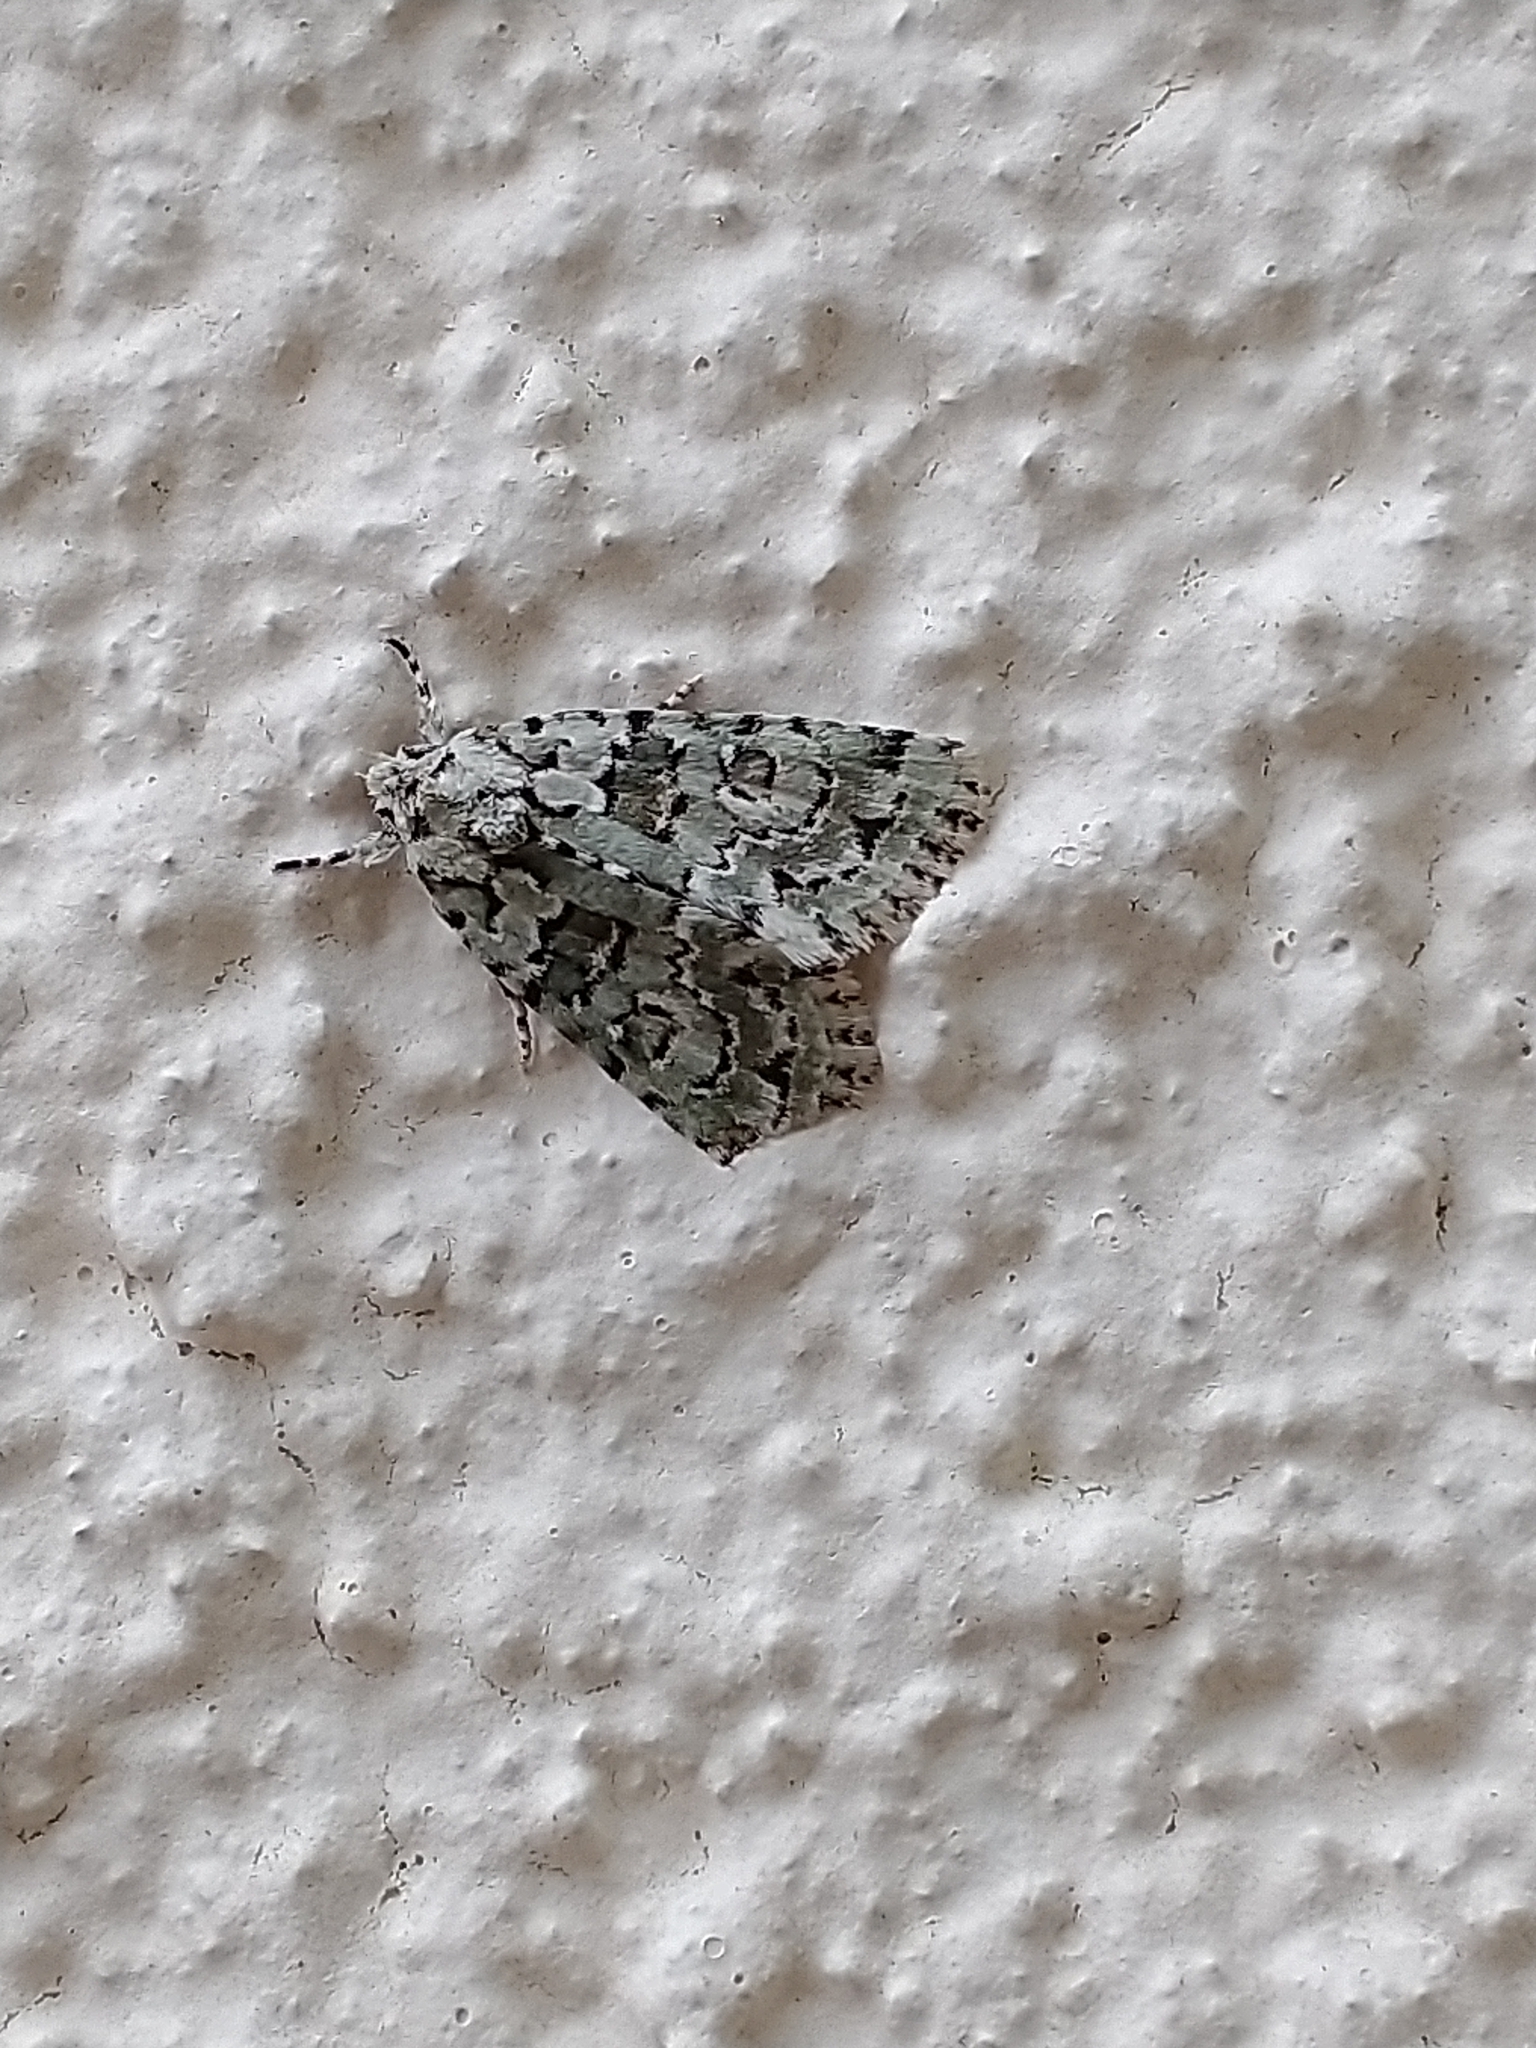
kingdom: Animalia
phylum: Arthropoda
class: Insecta
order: Lepidoptera
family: Noctuidae
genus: Nyctobrya
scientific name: Nyctobrya muralis
